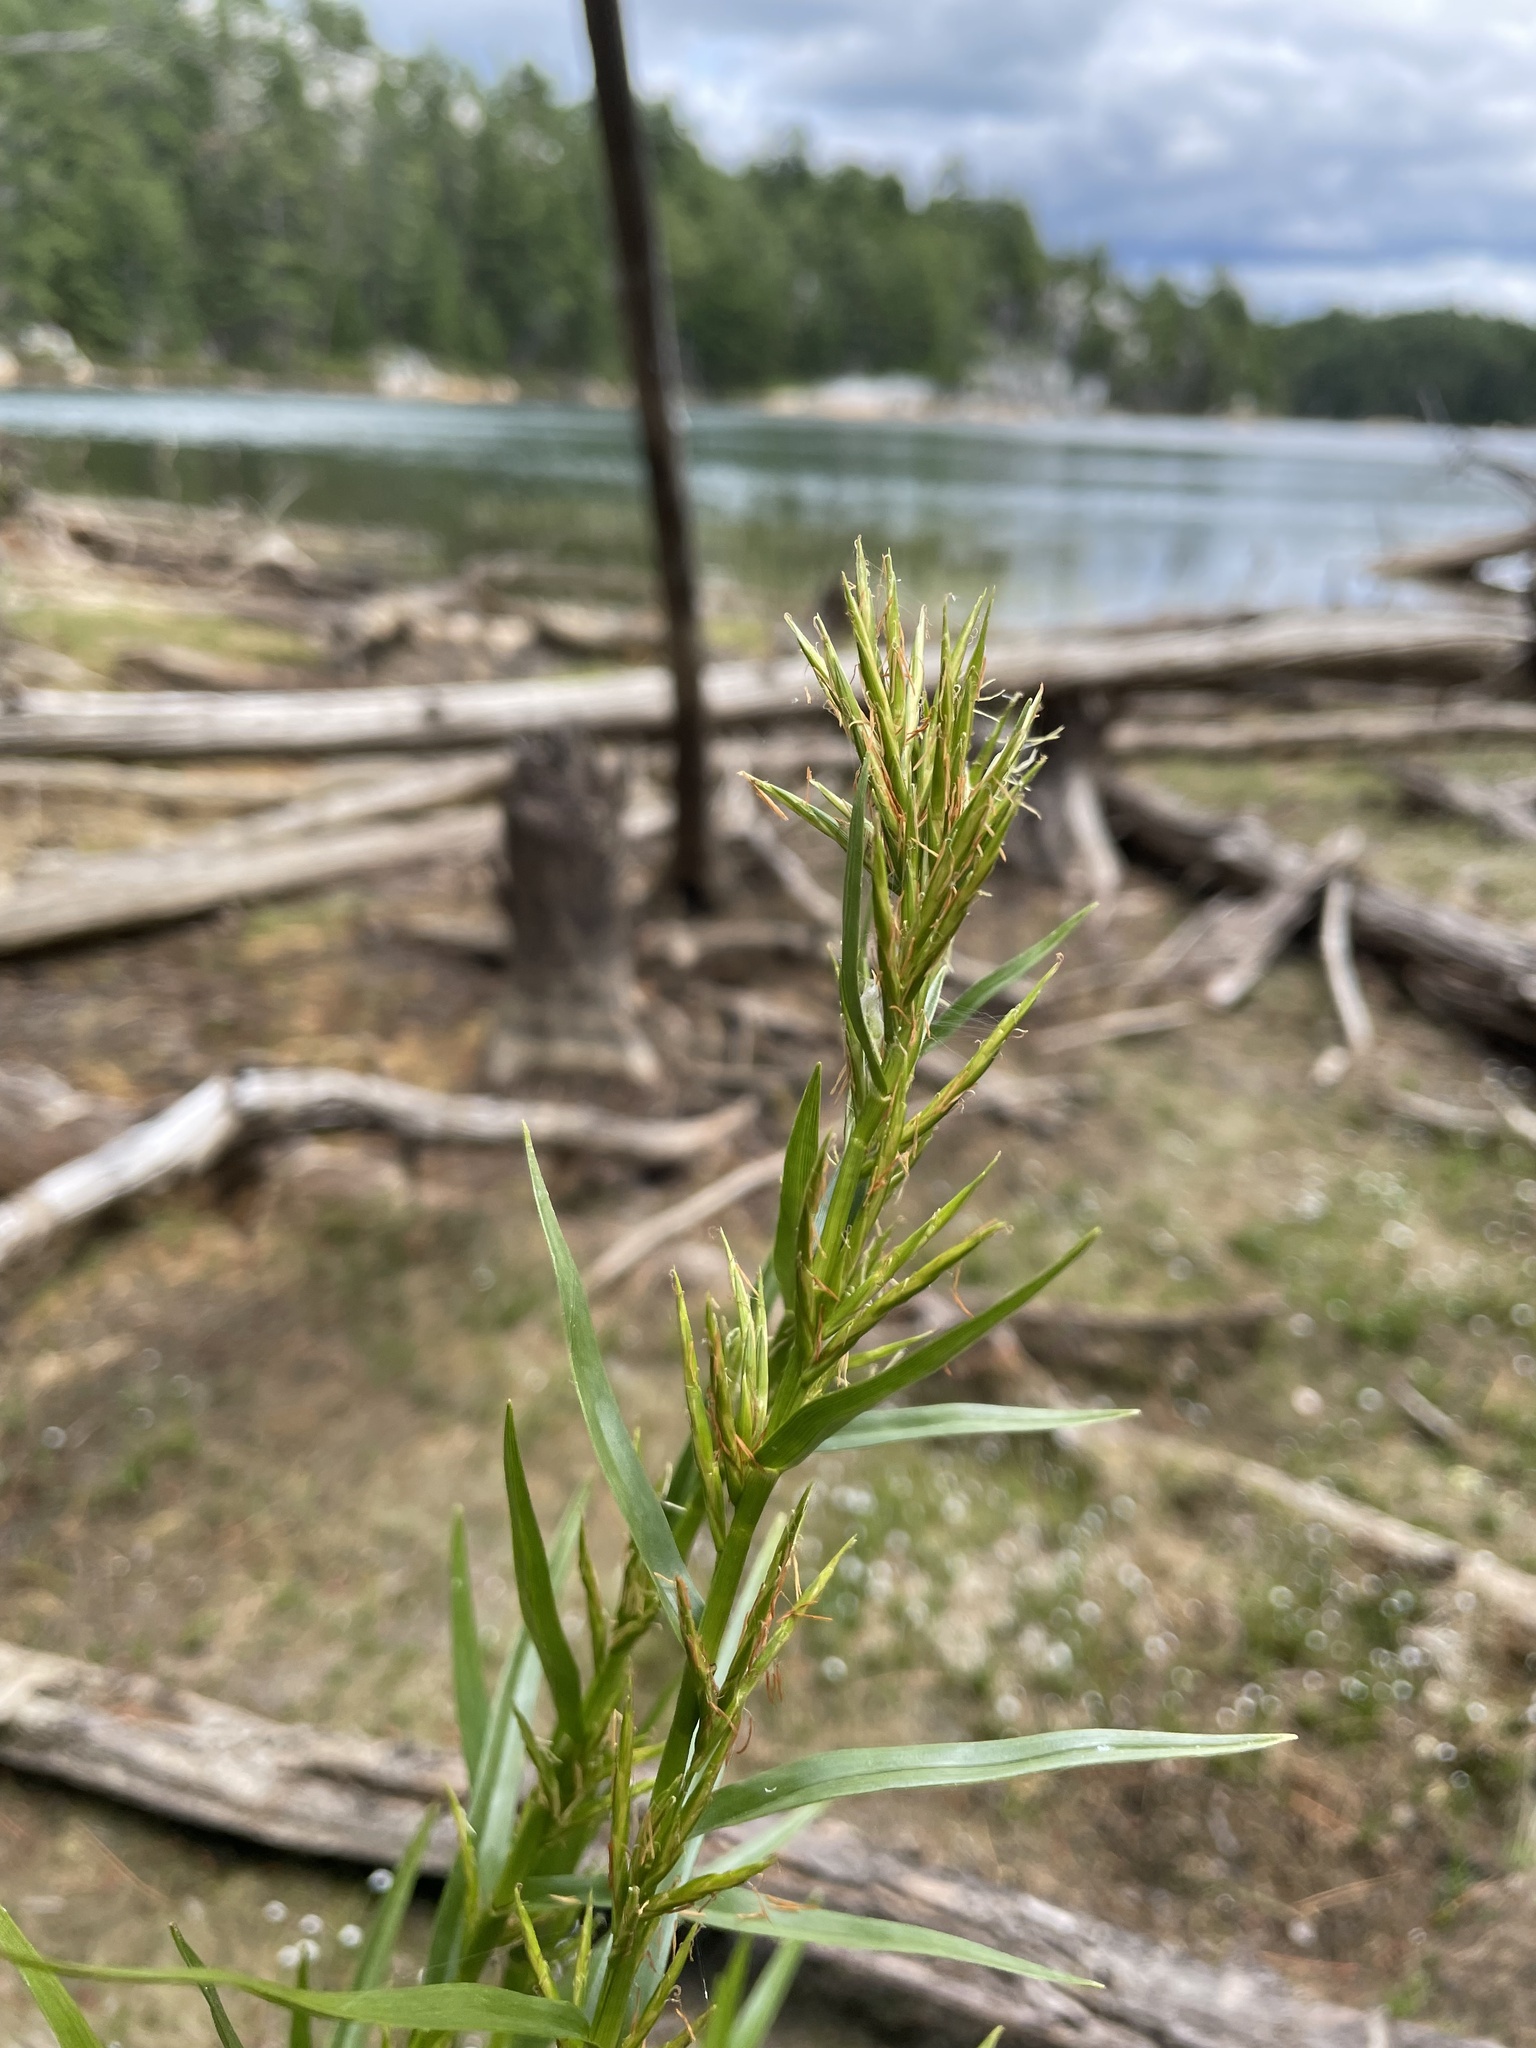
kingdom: Plantae
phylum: Tracheophyta
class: Liliopsida
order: Poales
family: Cyperaceae
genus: Dulichium
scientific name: Dulichium arundinaceum
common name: Three-way sedge
